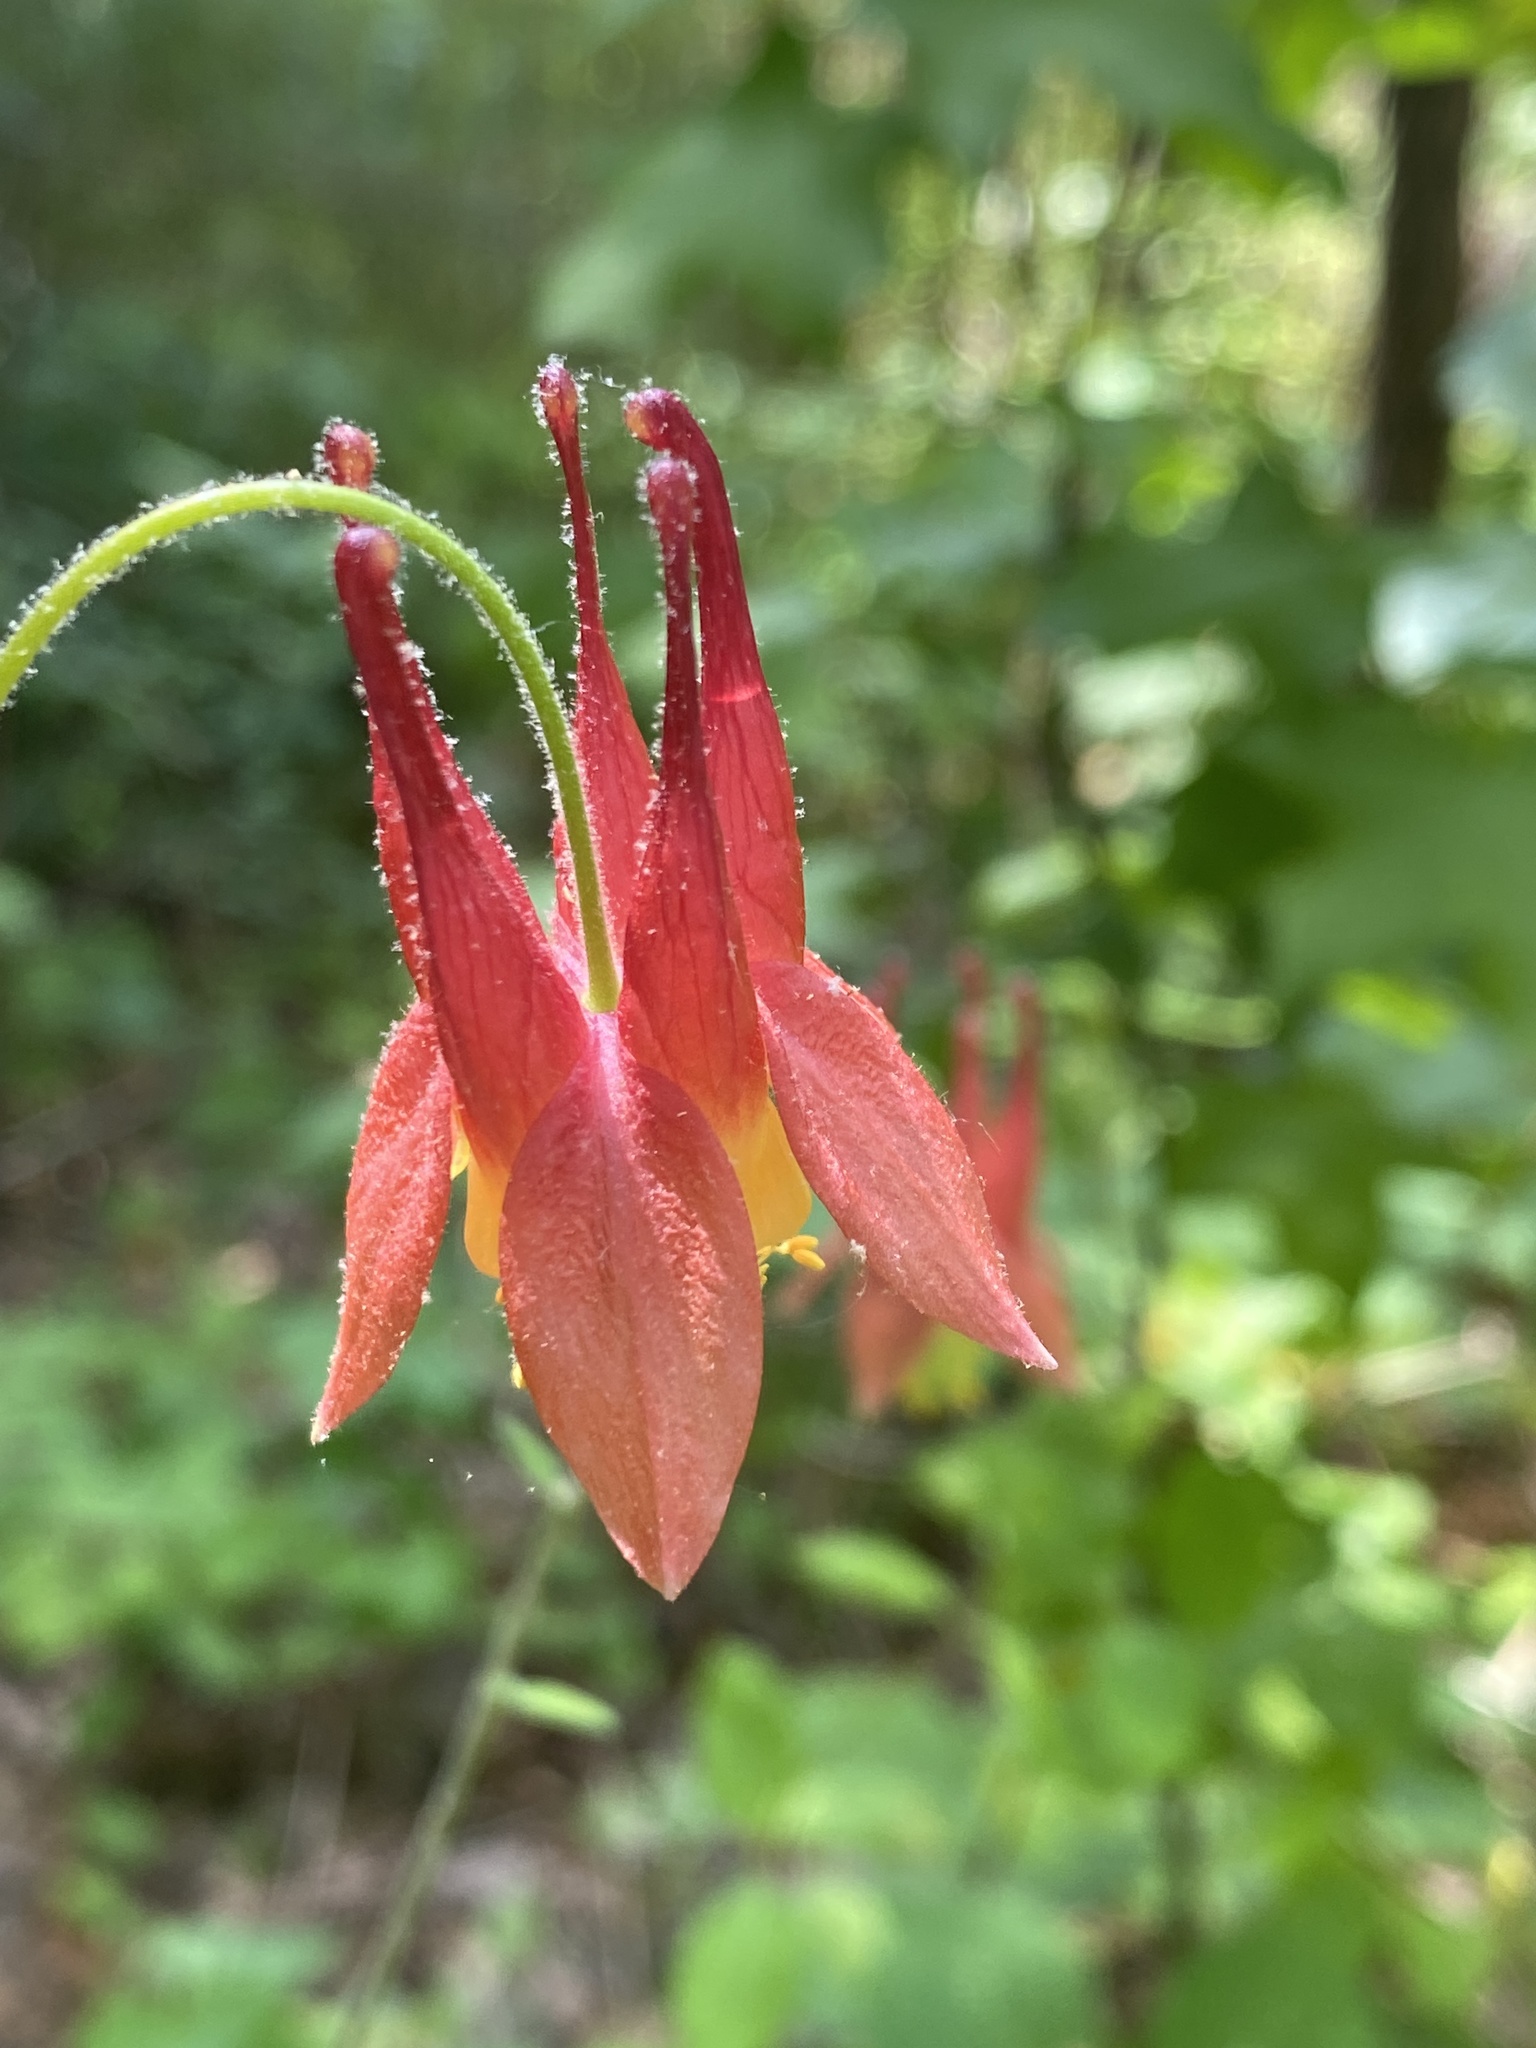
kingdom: Plantae
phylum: Tracheophyta
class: Magnoliopsida
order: Ranunculales
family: Ranunculaceae
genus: Aquilegia
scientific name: Aquilegia canadensis
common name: American columbine
